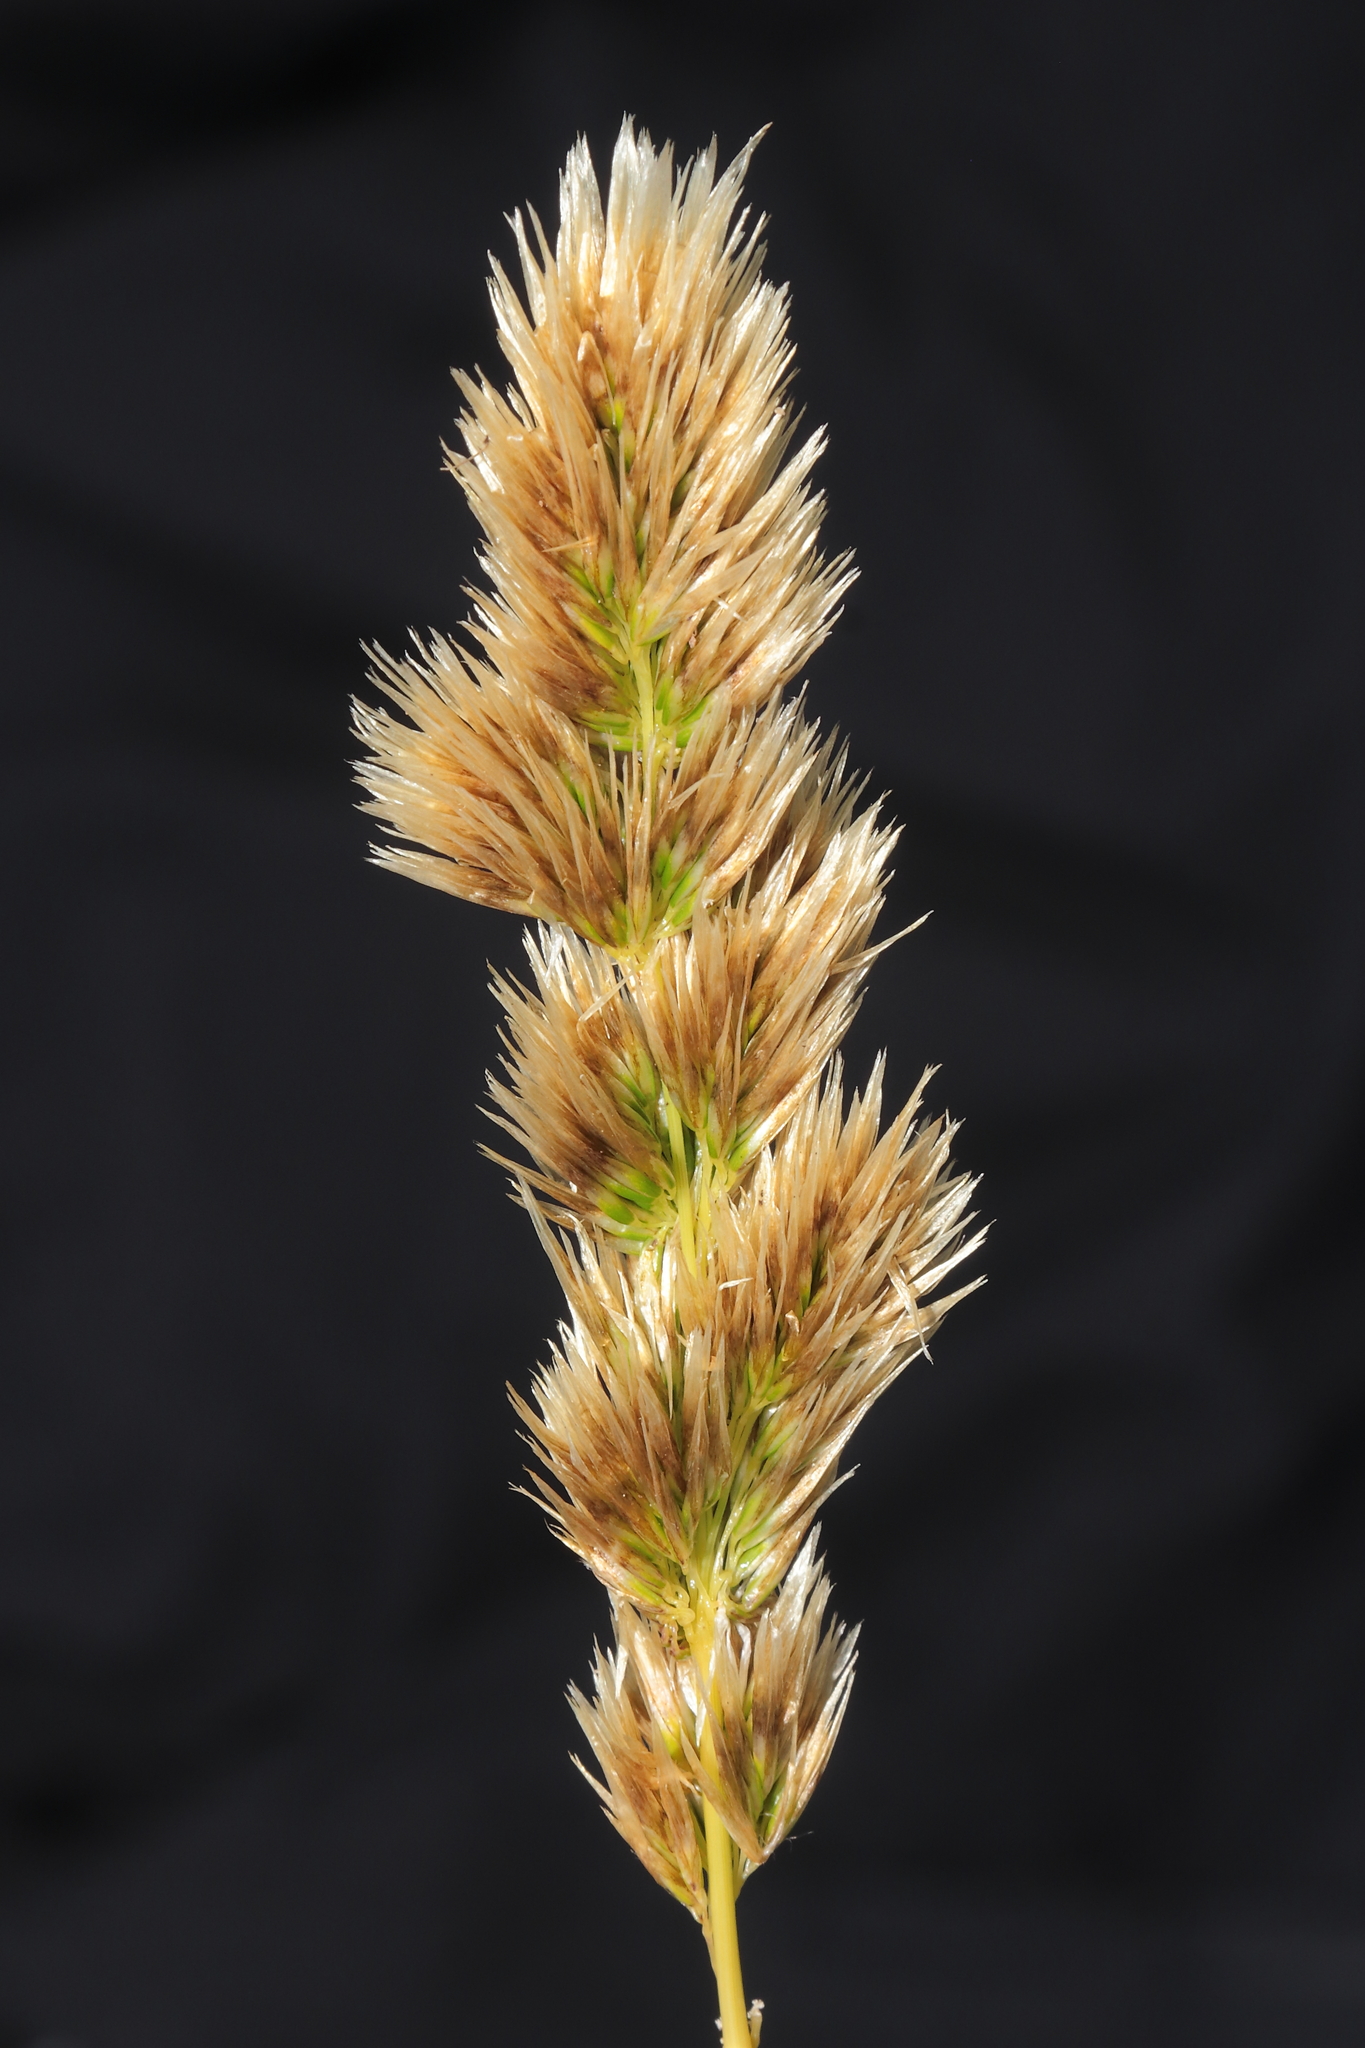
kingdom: Plantae
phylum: Tracheophyta
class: Liliopsida
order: Poales
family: Poaceae
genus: Deschampsia
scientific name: Deschampsia chrysantha
